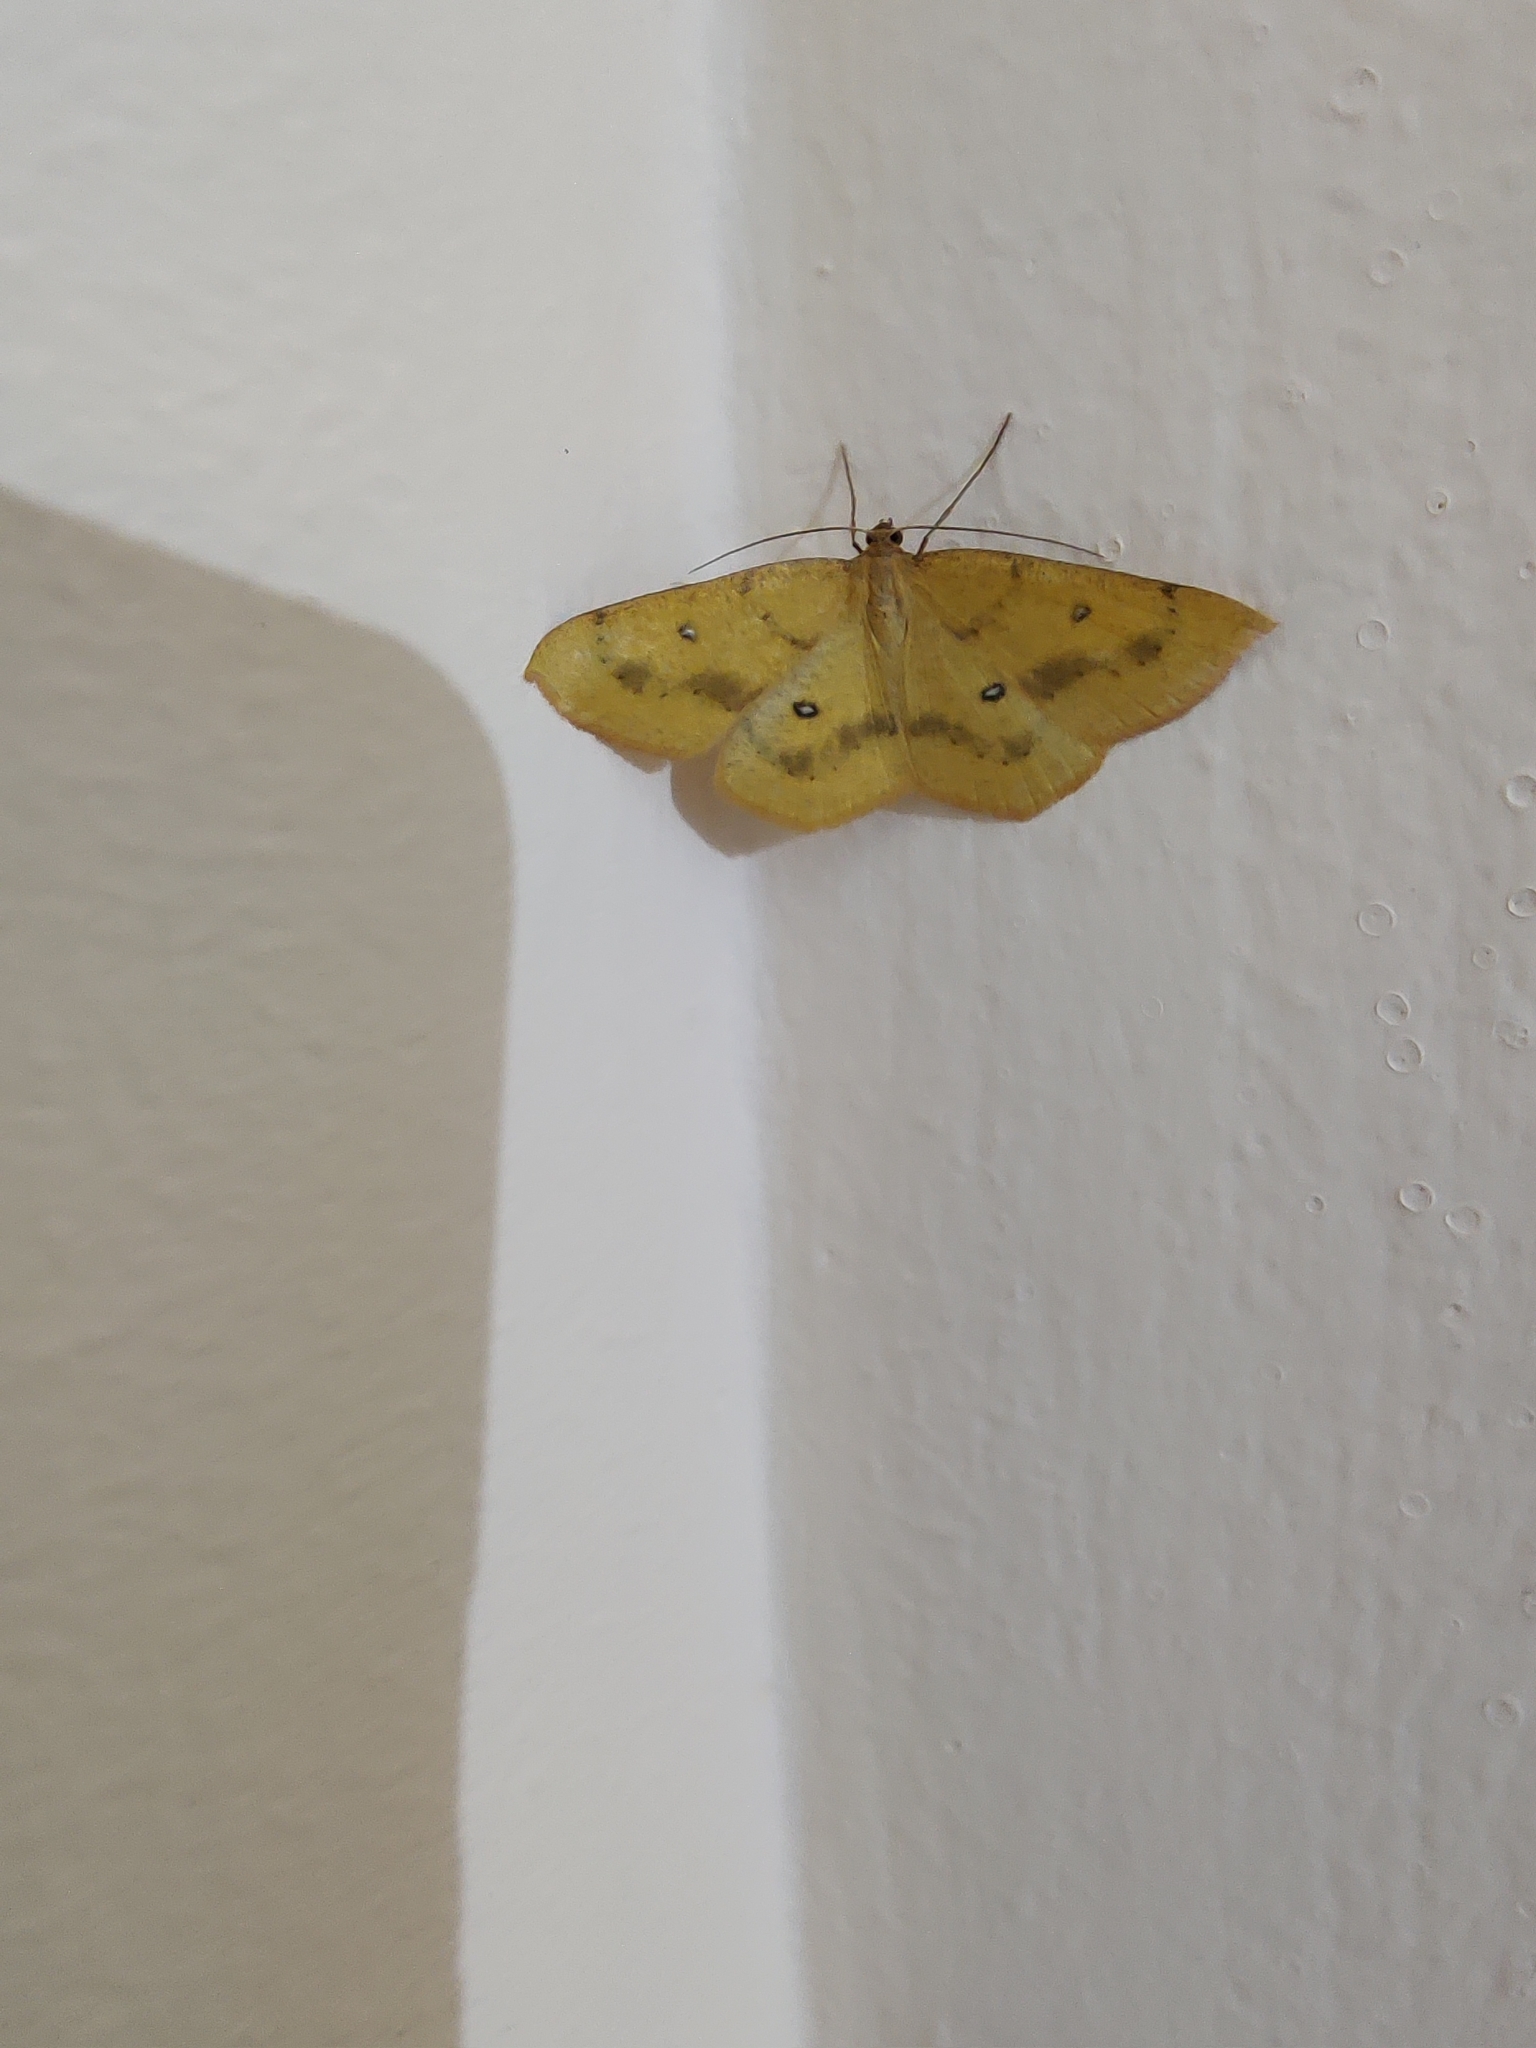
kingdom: Animalia
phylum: Arthropoda
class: Insecta
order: Lepidoptera
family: Geometridae
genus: Palaeaspilates
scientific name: Palaeaspilates Anisephyra ocularia
